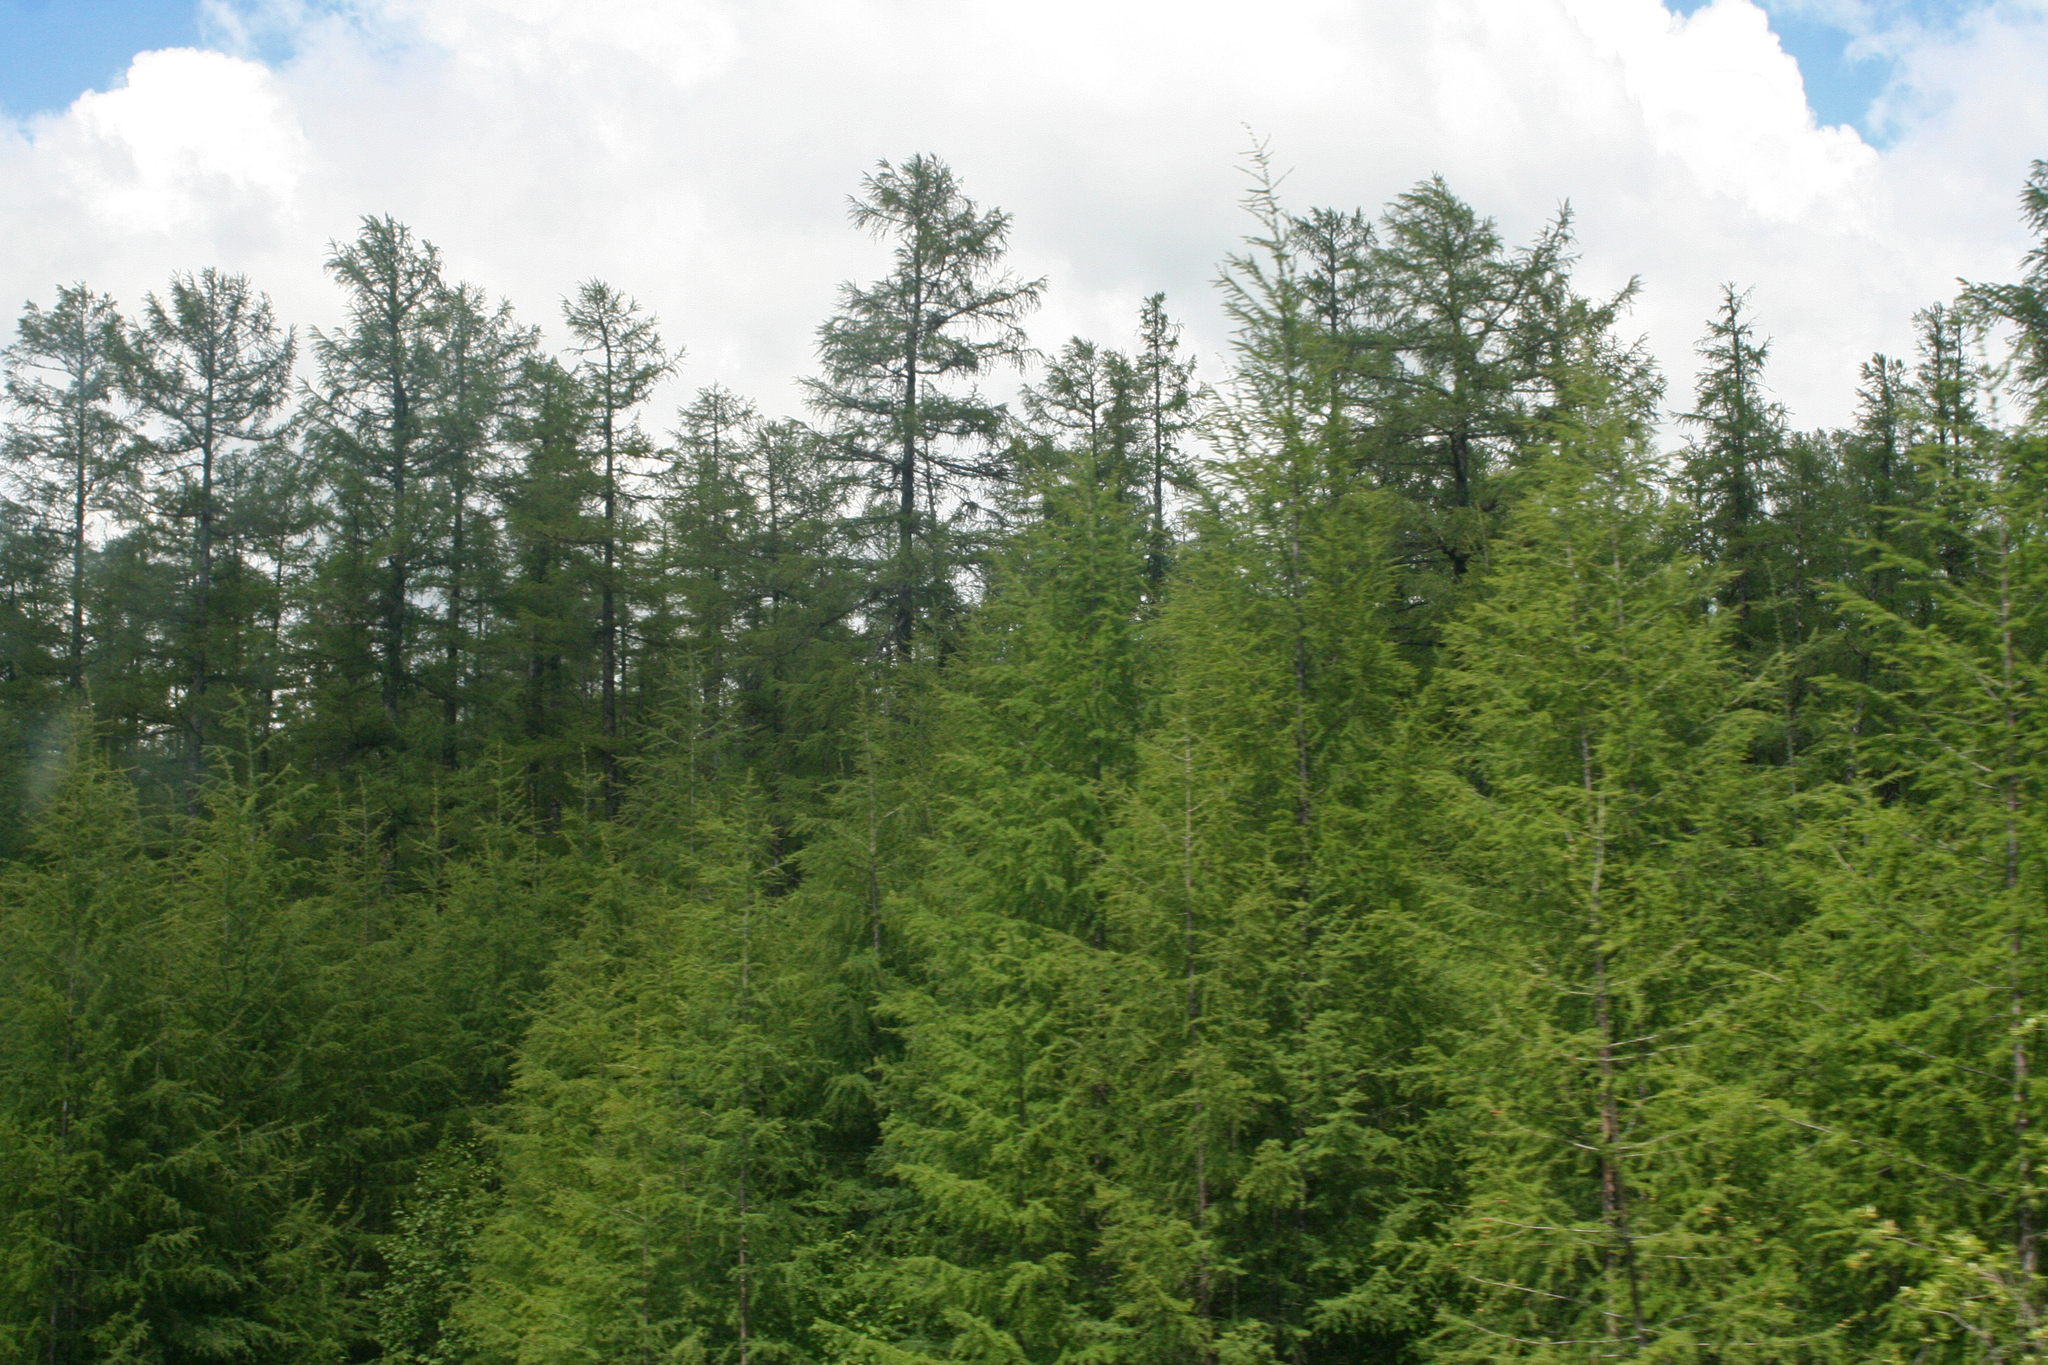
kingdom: Plantae
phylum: Tracheophyta
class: Pinopsida
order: Pinales
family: Pinaceae
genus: Larix
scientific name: Larix gmelinii
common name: Dahurian larch
